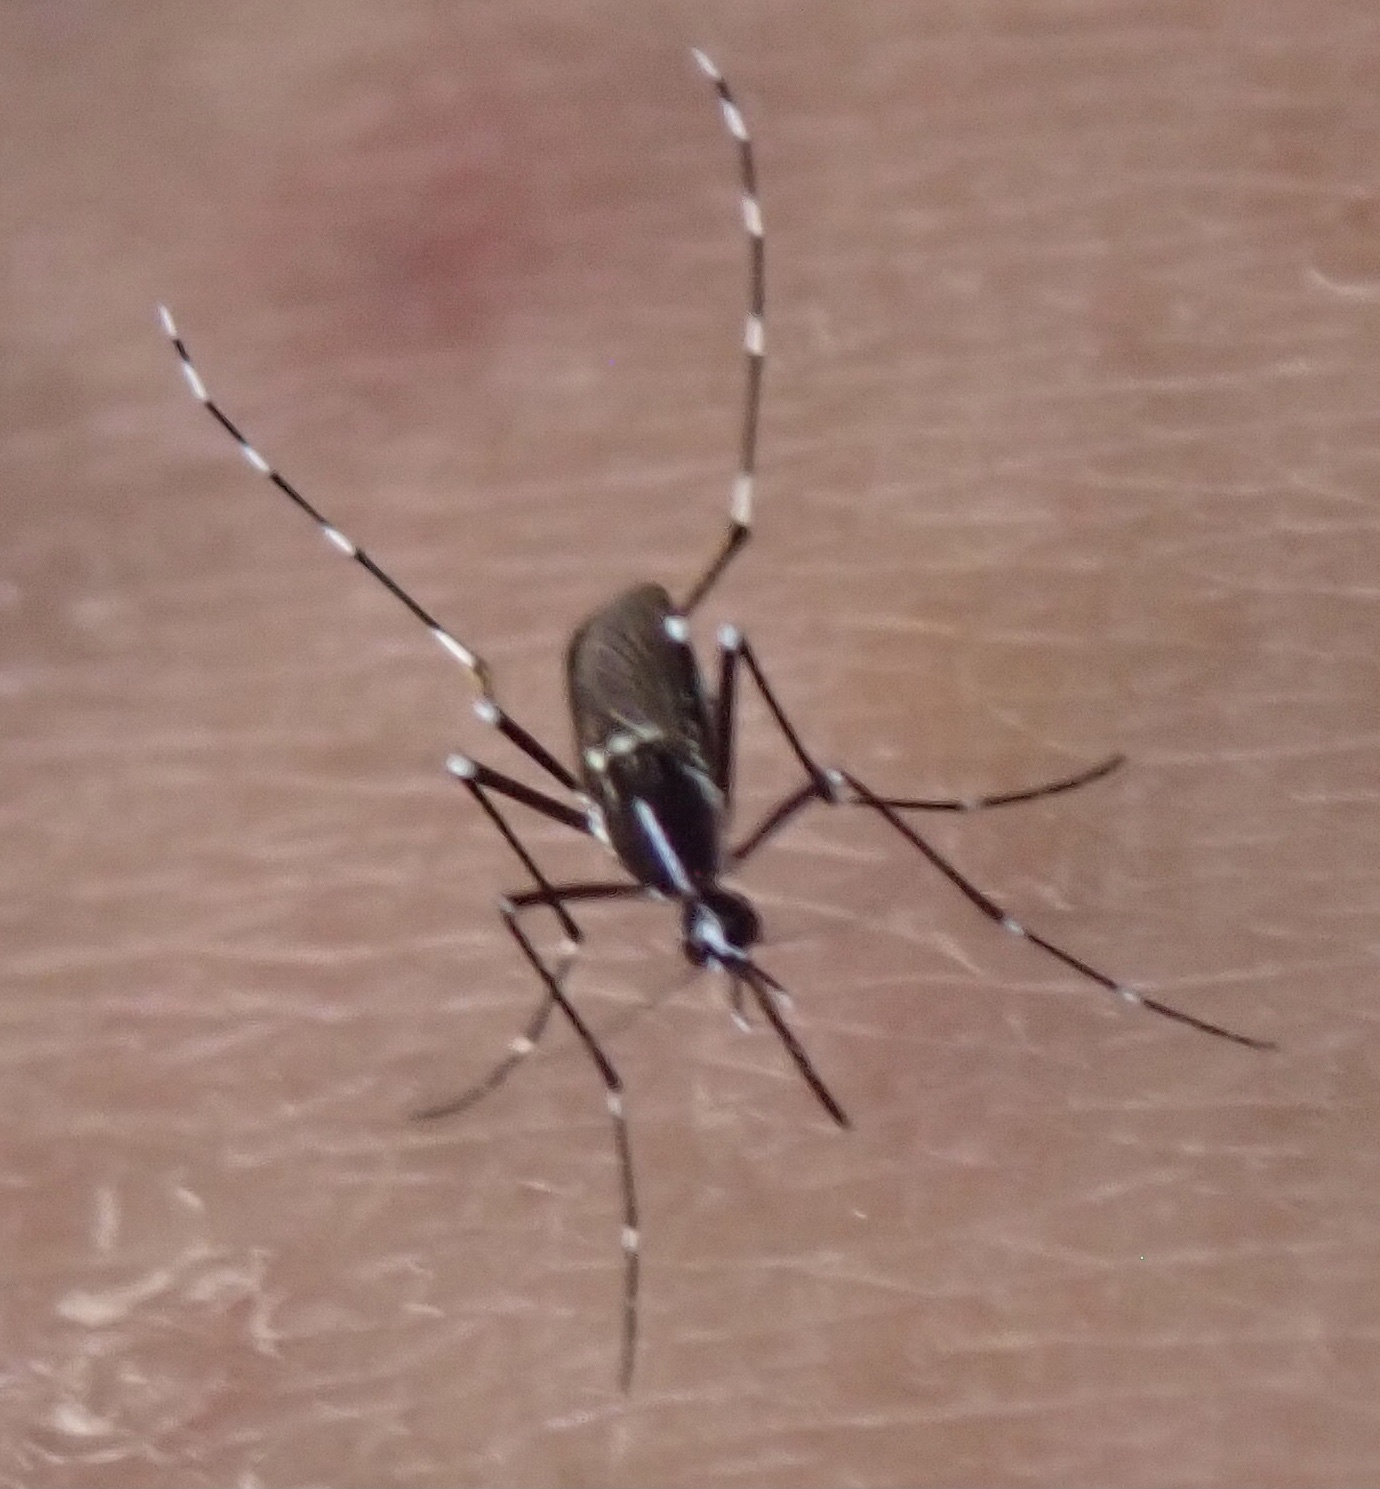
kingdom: Animalia
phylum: Arthropoda
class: Insecta
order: Diptera
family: Culicidae
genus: Aedes
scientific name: Aedes albopictus
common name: Tiger mosquito
